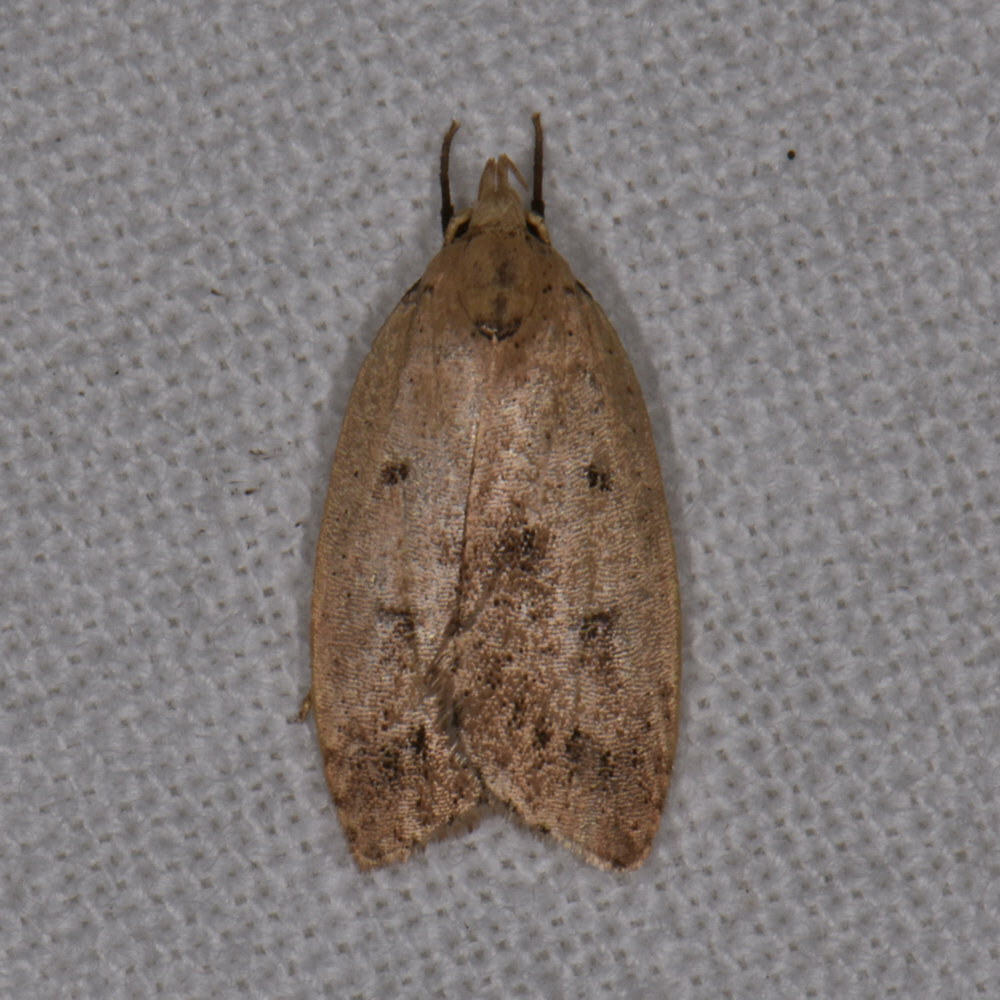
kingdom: Animalia
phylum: Arthropoda
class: Insecta
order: Lepidoptera
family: Peleopodidae
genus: Machimia
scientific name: Machimia tentoriferella
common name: Gold-striped leaftier moth
